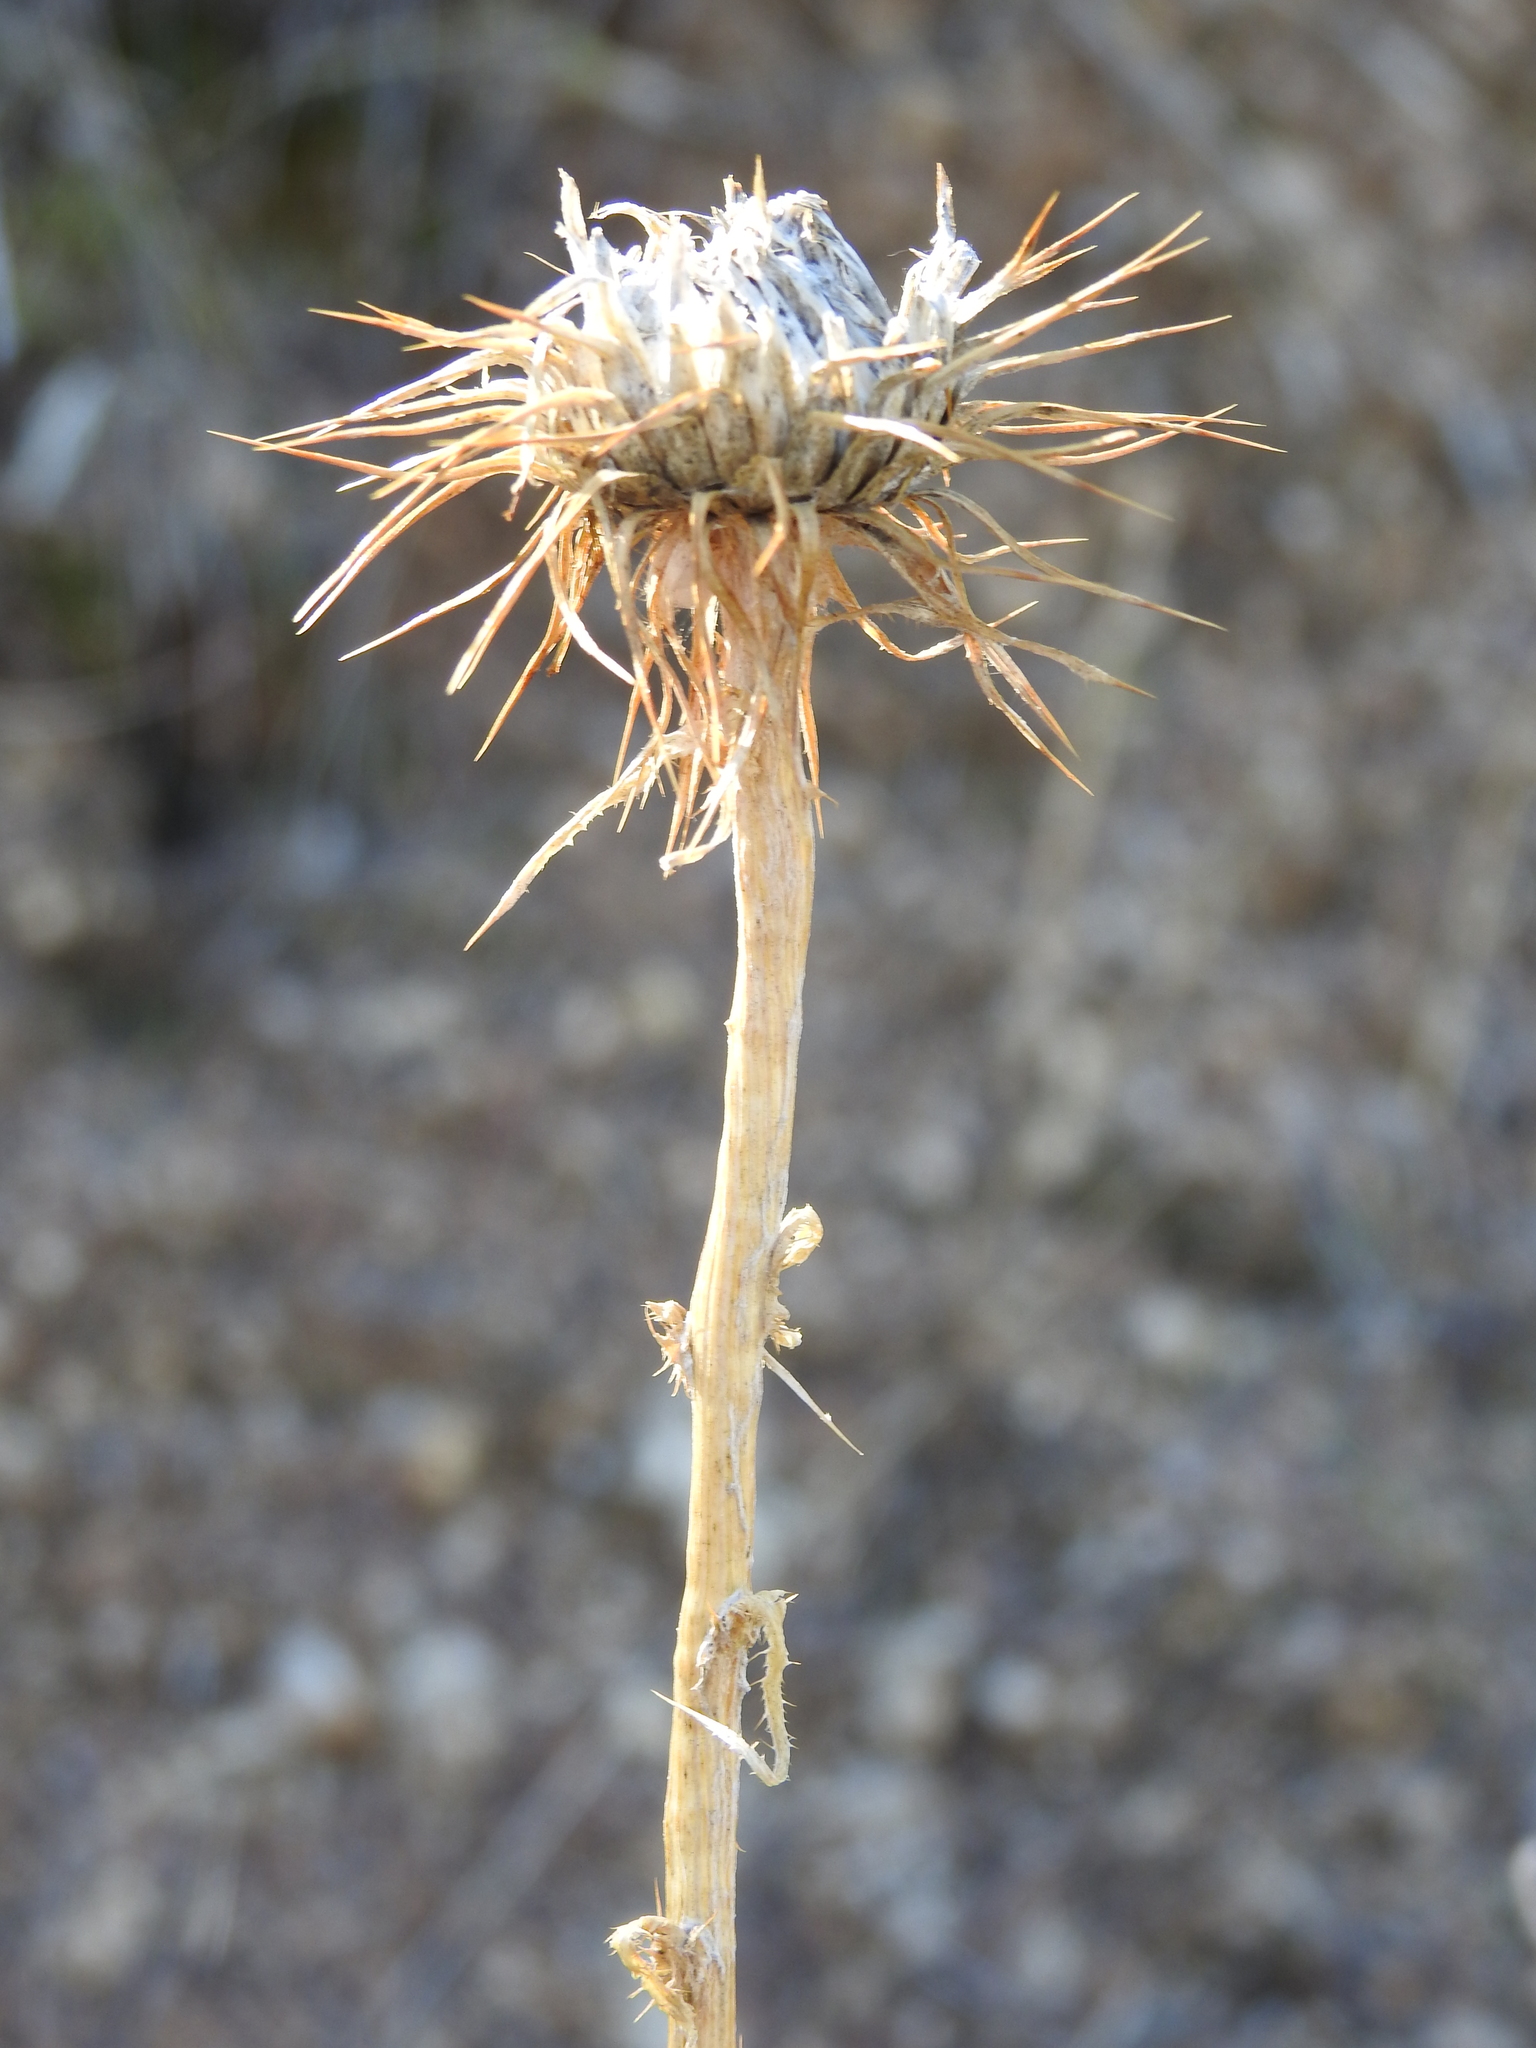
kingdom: Plantae
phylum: Tracheophyta
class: Magnoliopsida
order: Asterales
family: Asteraceae
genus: Cirsium
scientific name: Cirsium neomexicanum
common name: New mexico thistle
